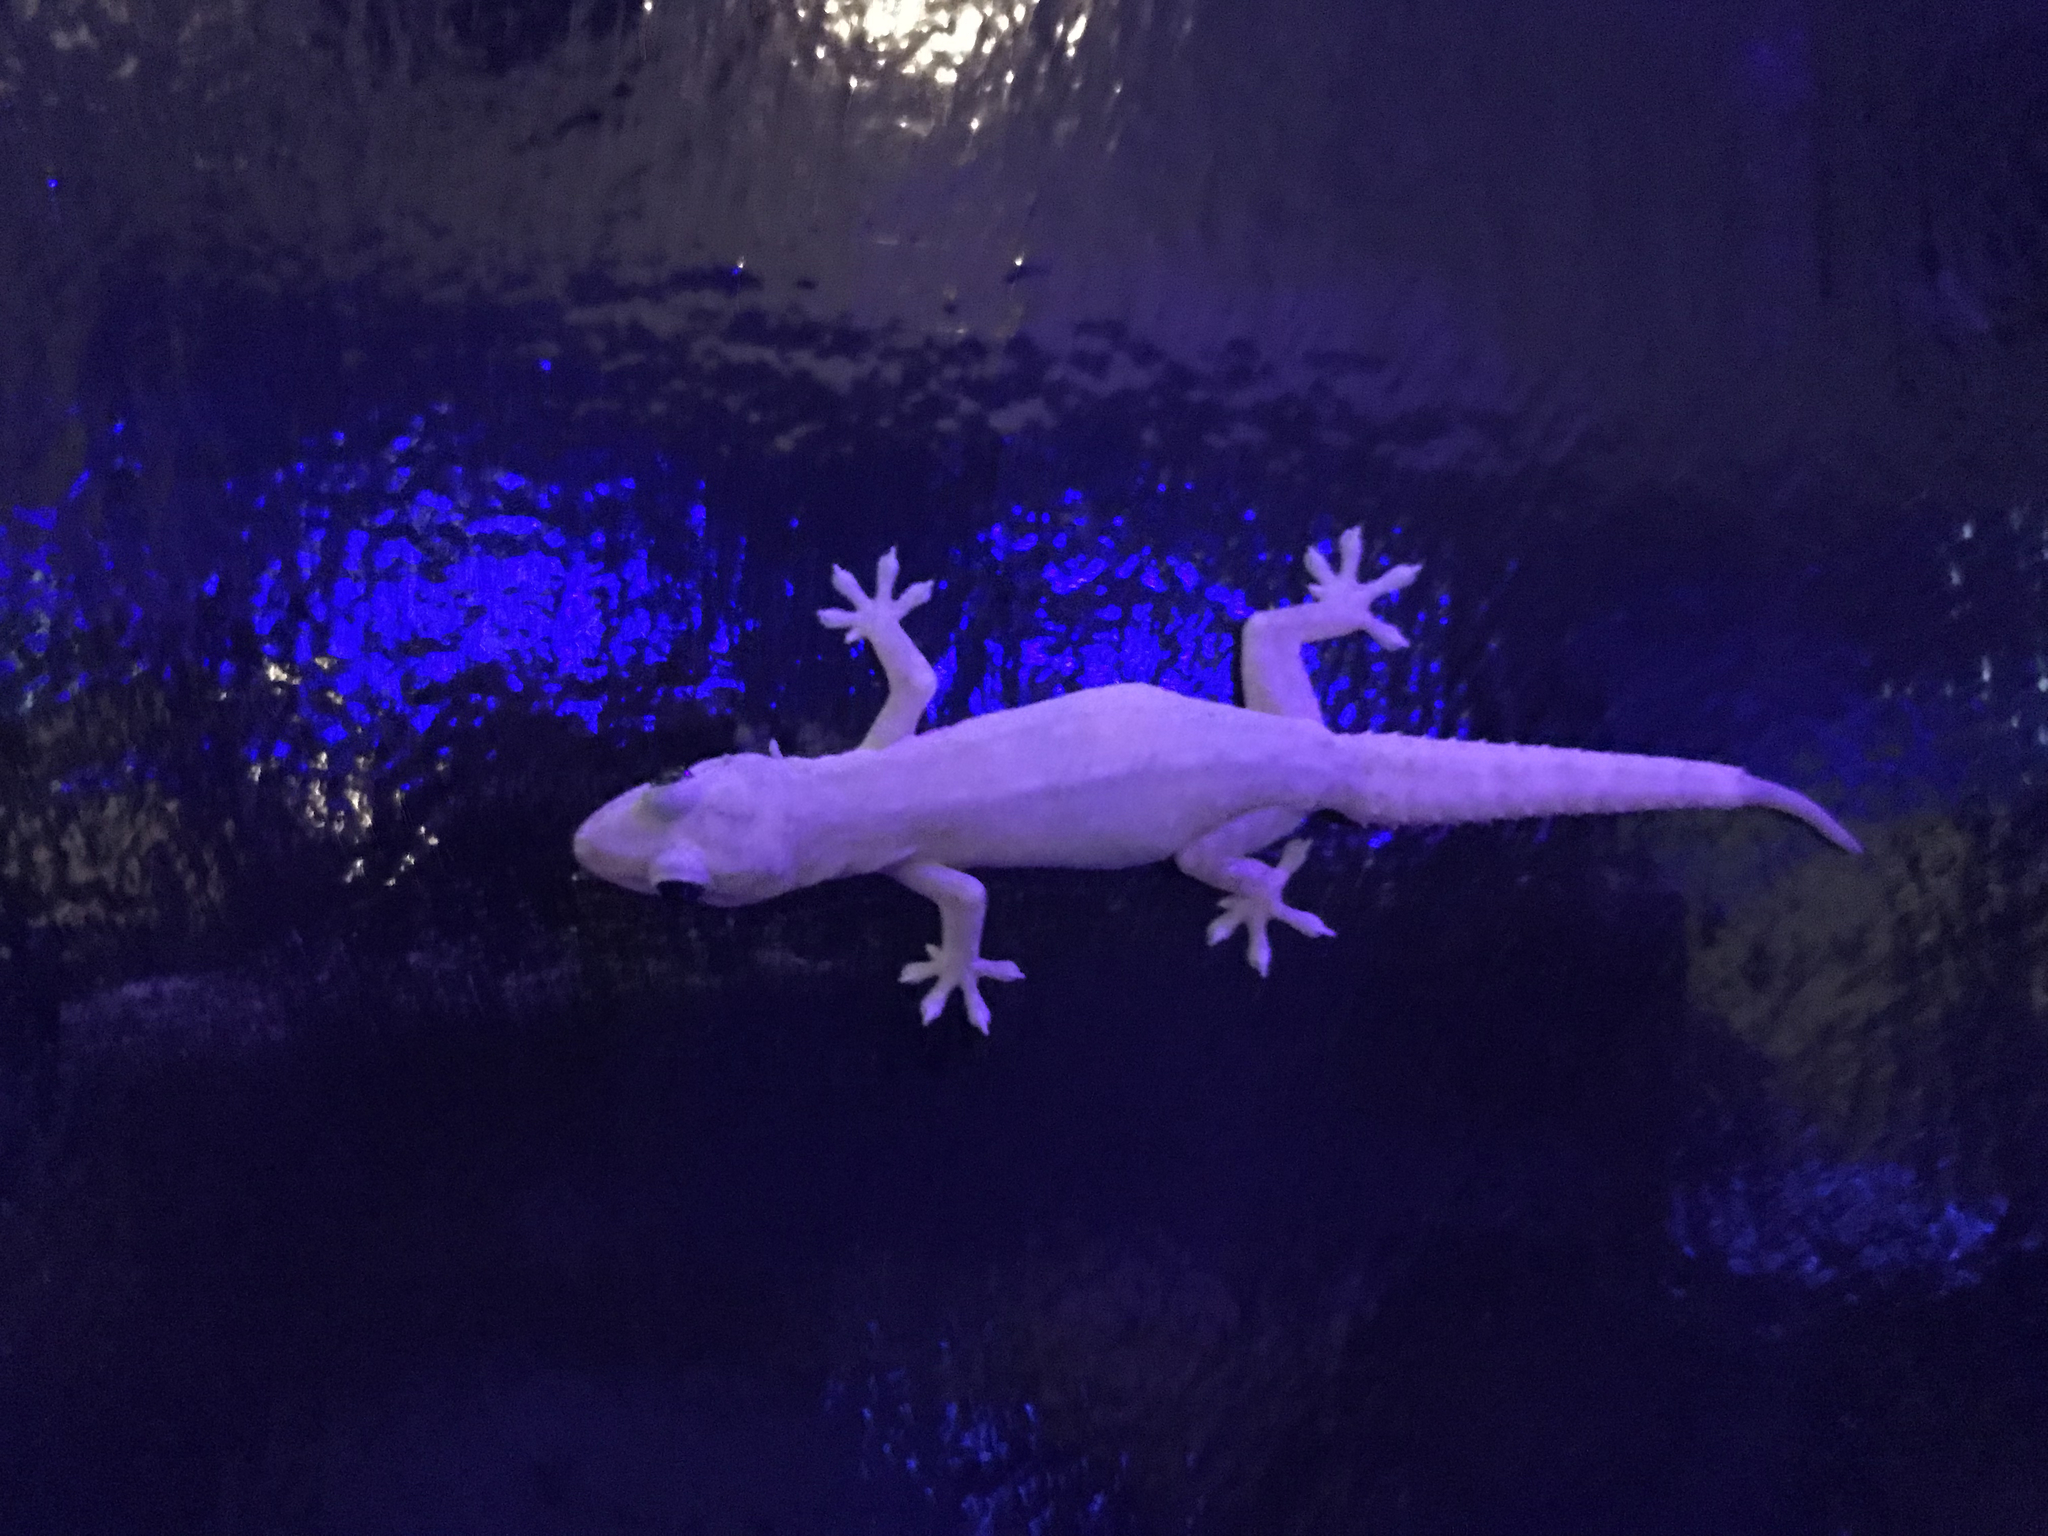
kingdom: Animalia
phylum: Chordata
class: Squamata
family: Gekkonidae
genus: Hemidactylus
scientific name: Hemidactylus frenatus
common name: Common house gecko
